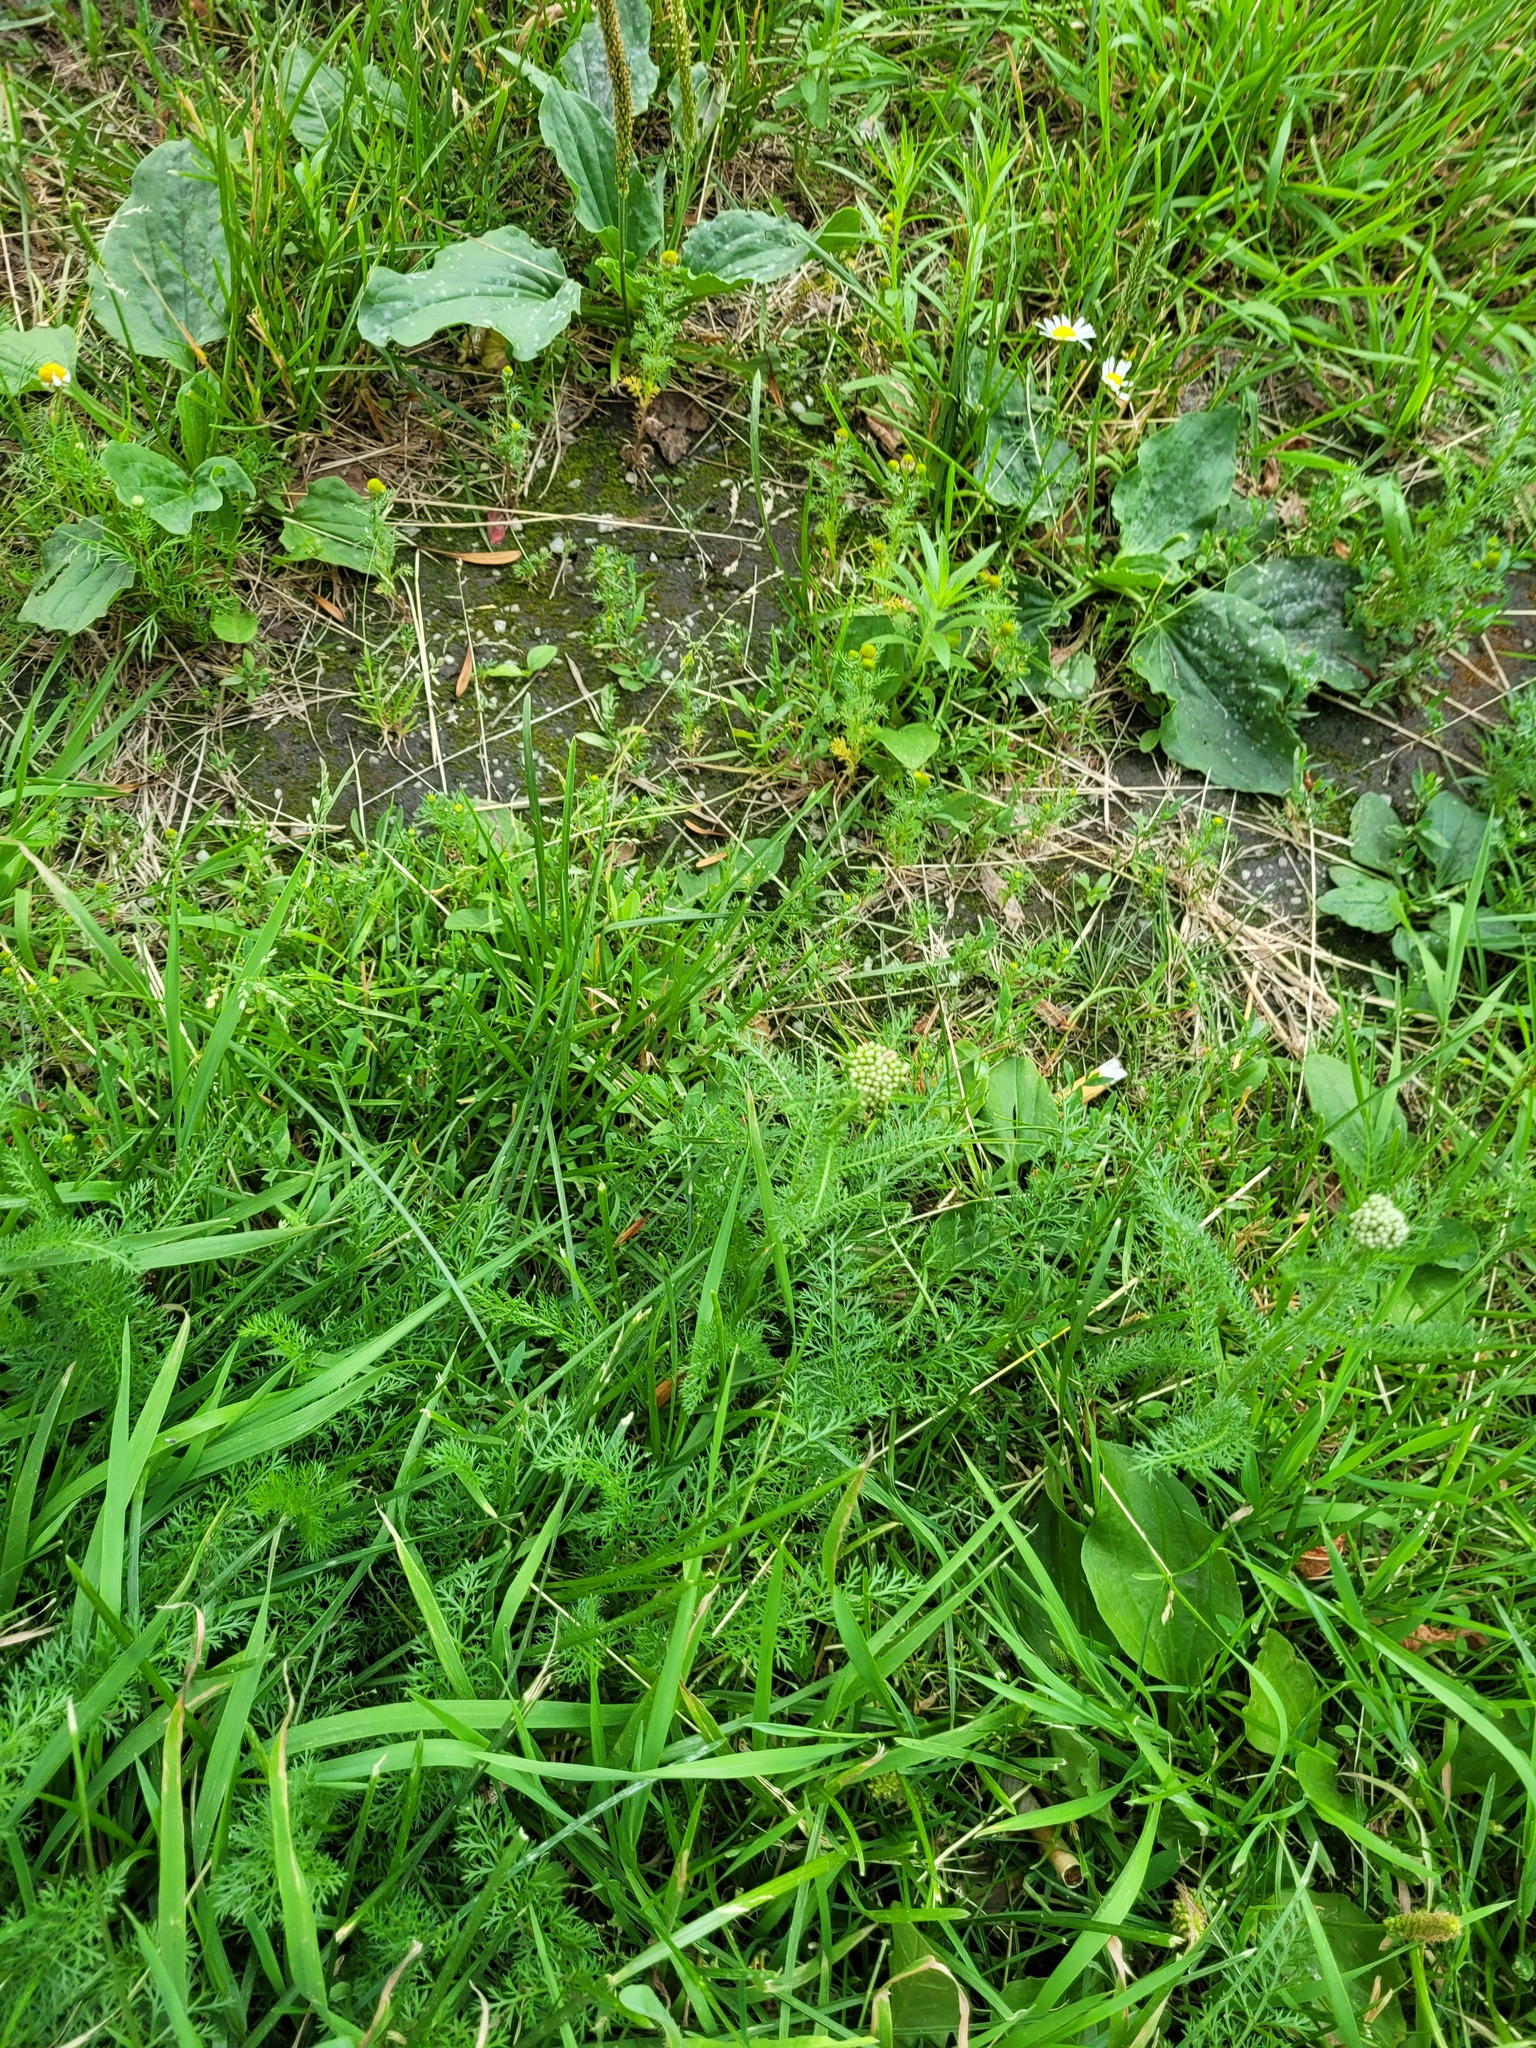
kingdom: Plantae
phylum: Tracheophyta
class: Magnoliopsida
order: Asterales
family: Asteraceae
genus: Achillea
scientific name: Achillea millefolium
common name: Yarrow
